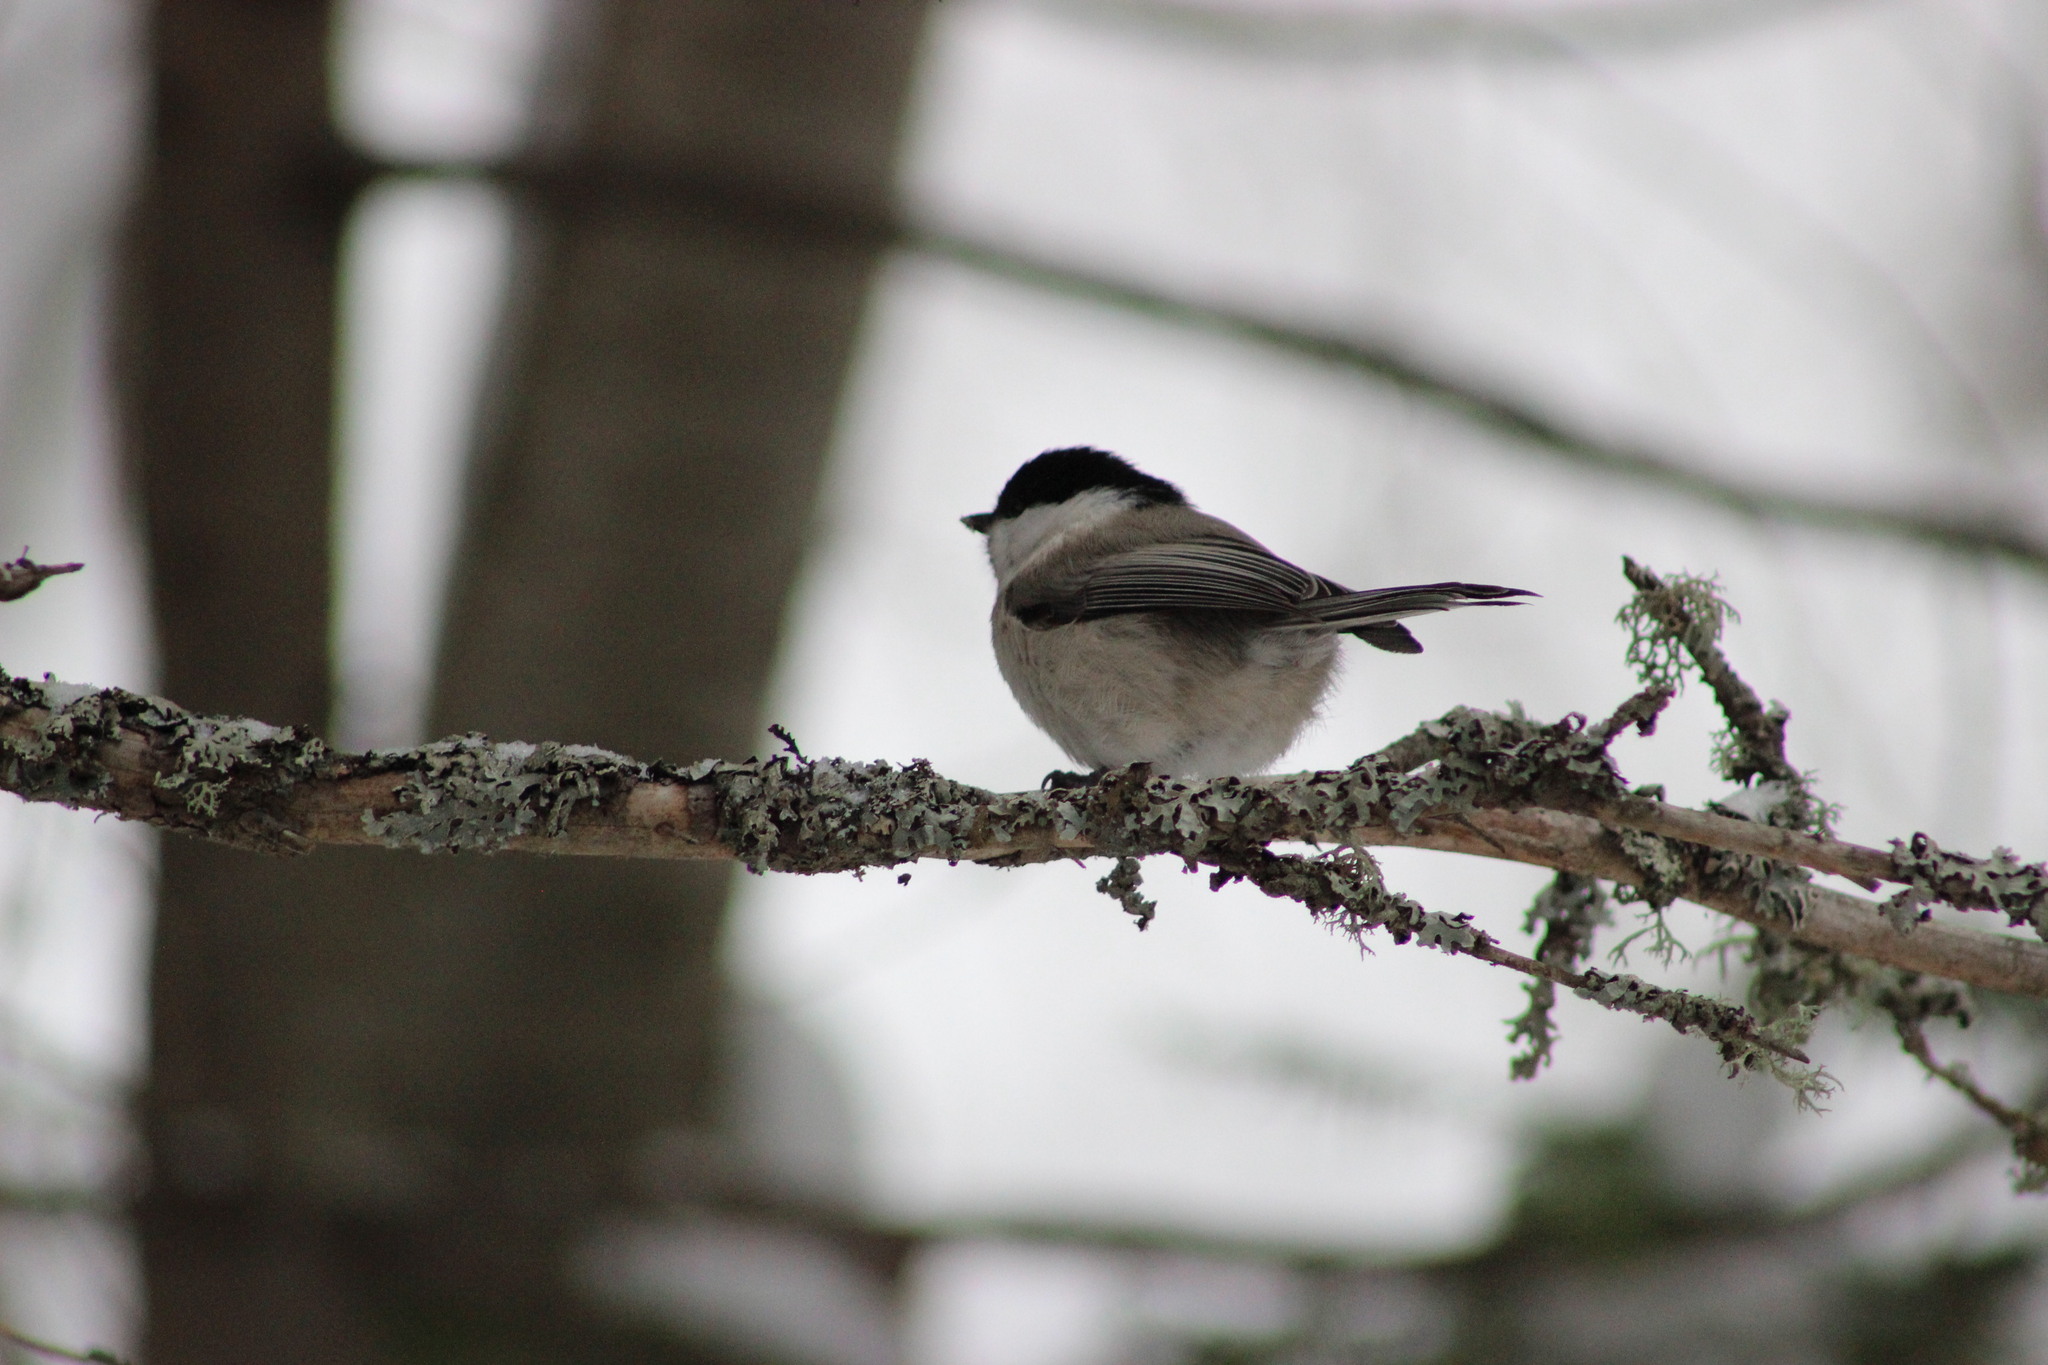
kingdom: Animalia
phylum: Chordata
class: Aves
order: Passeriformes
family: Paridae
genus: Poecile
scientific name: Poecile montanus
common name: Willow tit
